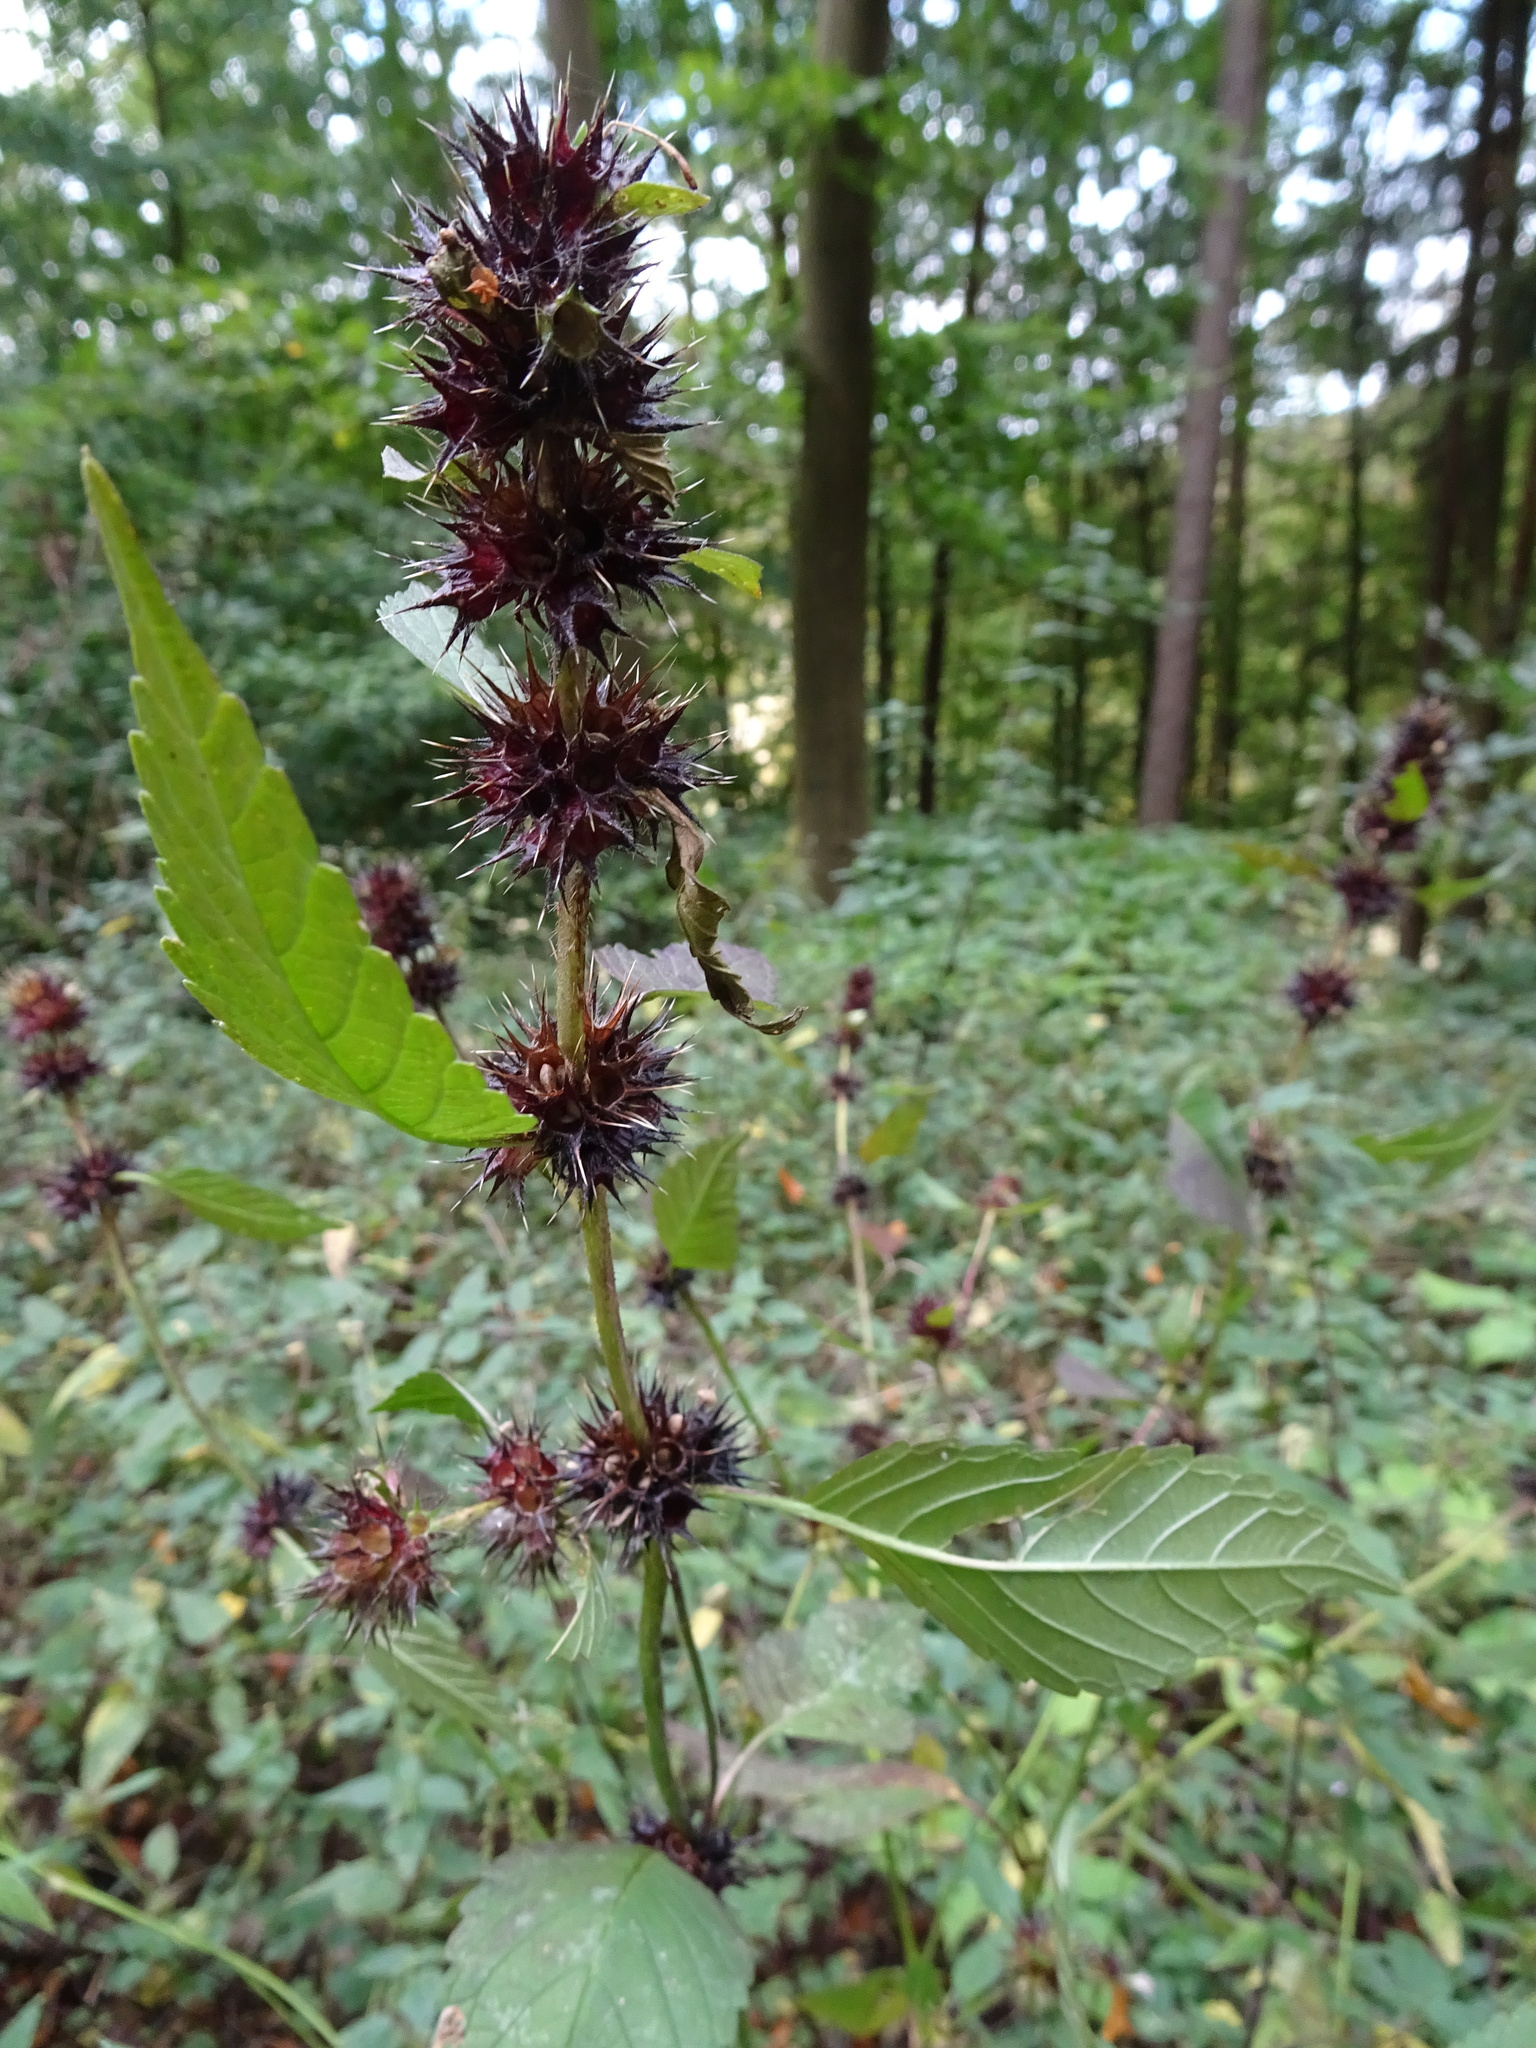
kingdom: Plantae
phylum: Tracheophyta
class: Magnoliopsida
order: Lamiales
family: Lamiaceae
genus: Galeopsis
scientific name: Galeopsis tetrahit
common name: Common hemp-nettle
